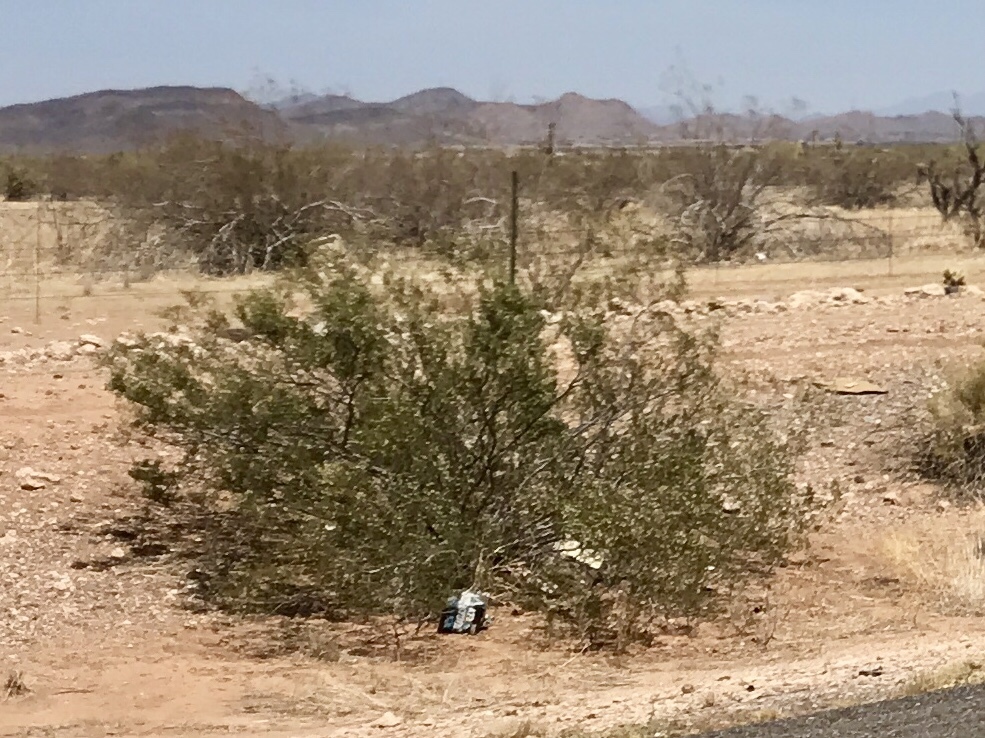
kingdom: Plantae
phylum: Tracheophyta
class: Magnoliopsida
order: Zygophyllales
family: Zygophyllaceae
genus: Larrea
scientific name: Larrea tridentata
